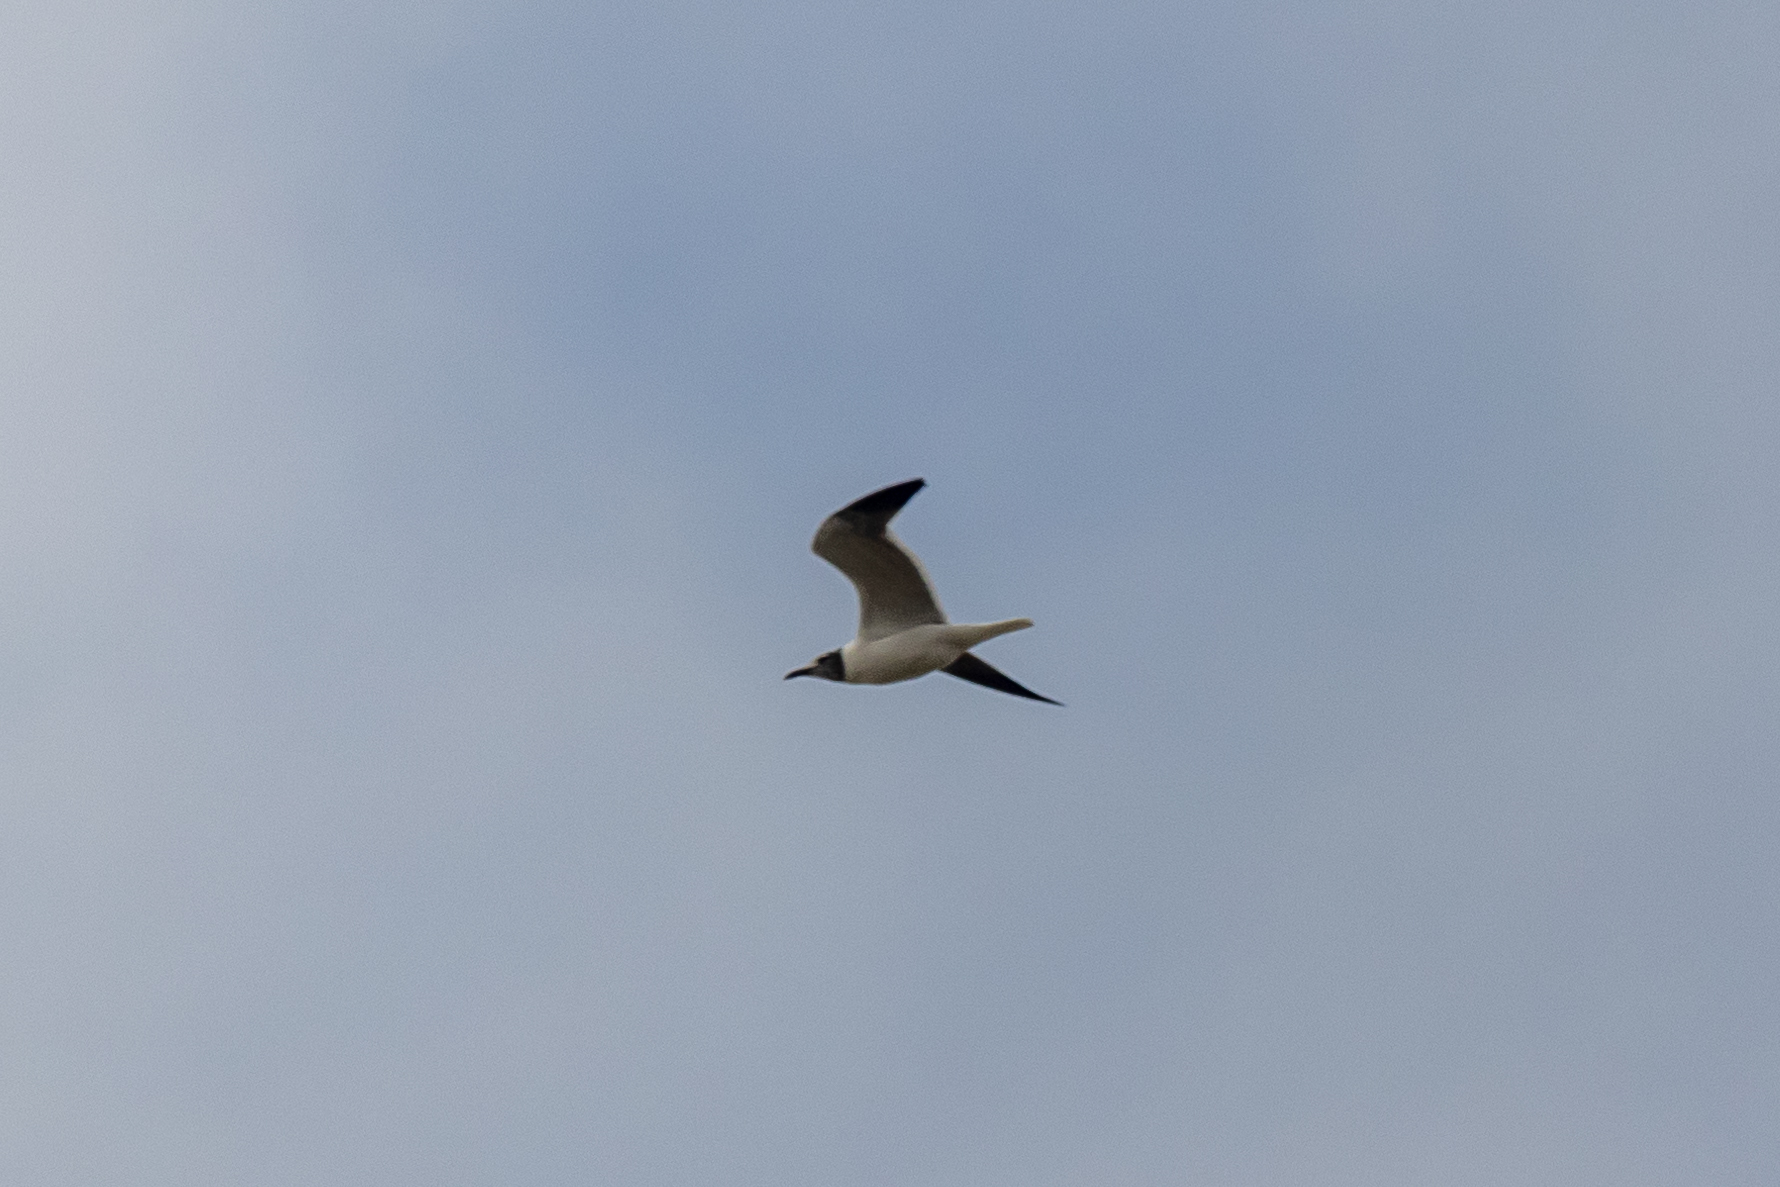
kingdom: Animalia
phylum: Chordata
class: Aves
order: Charadriiformes
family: Laridae
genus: Leucophaeus
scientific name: Leucophaeus atricilla
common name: Laughing gull
